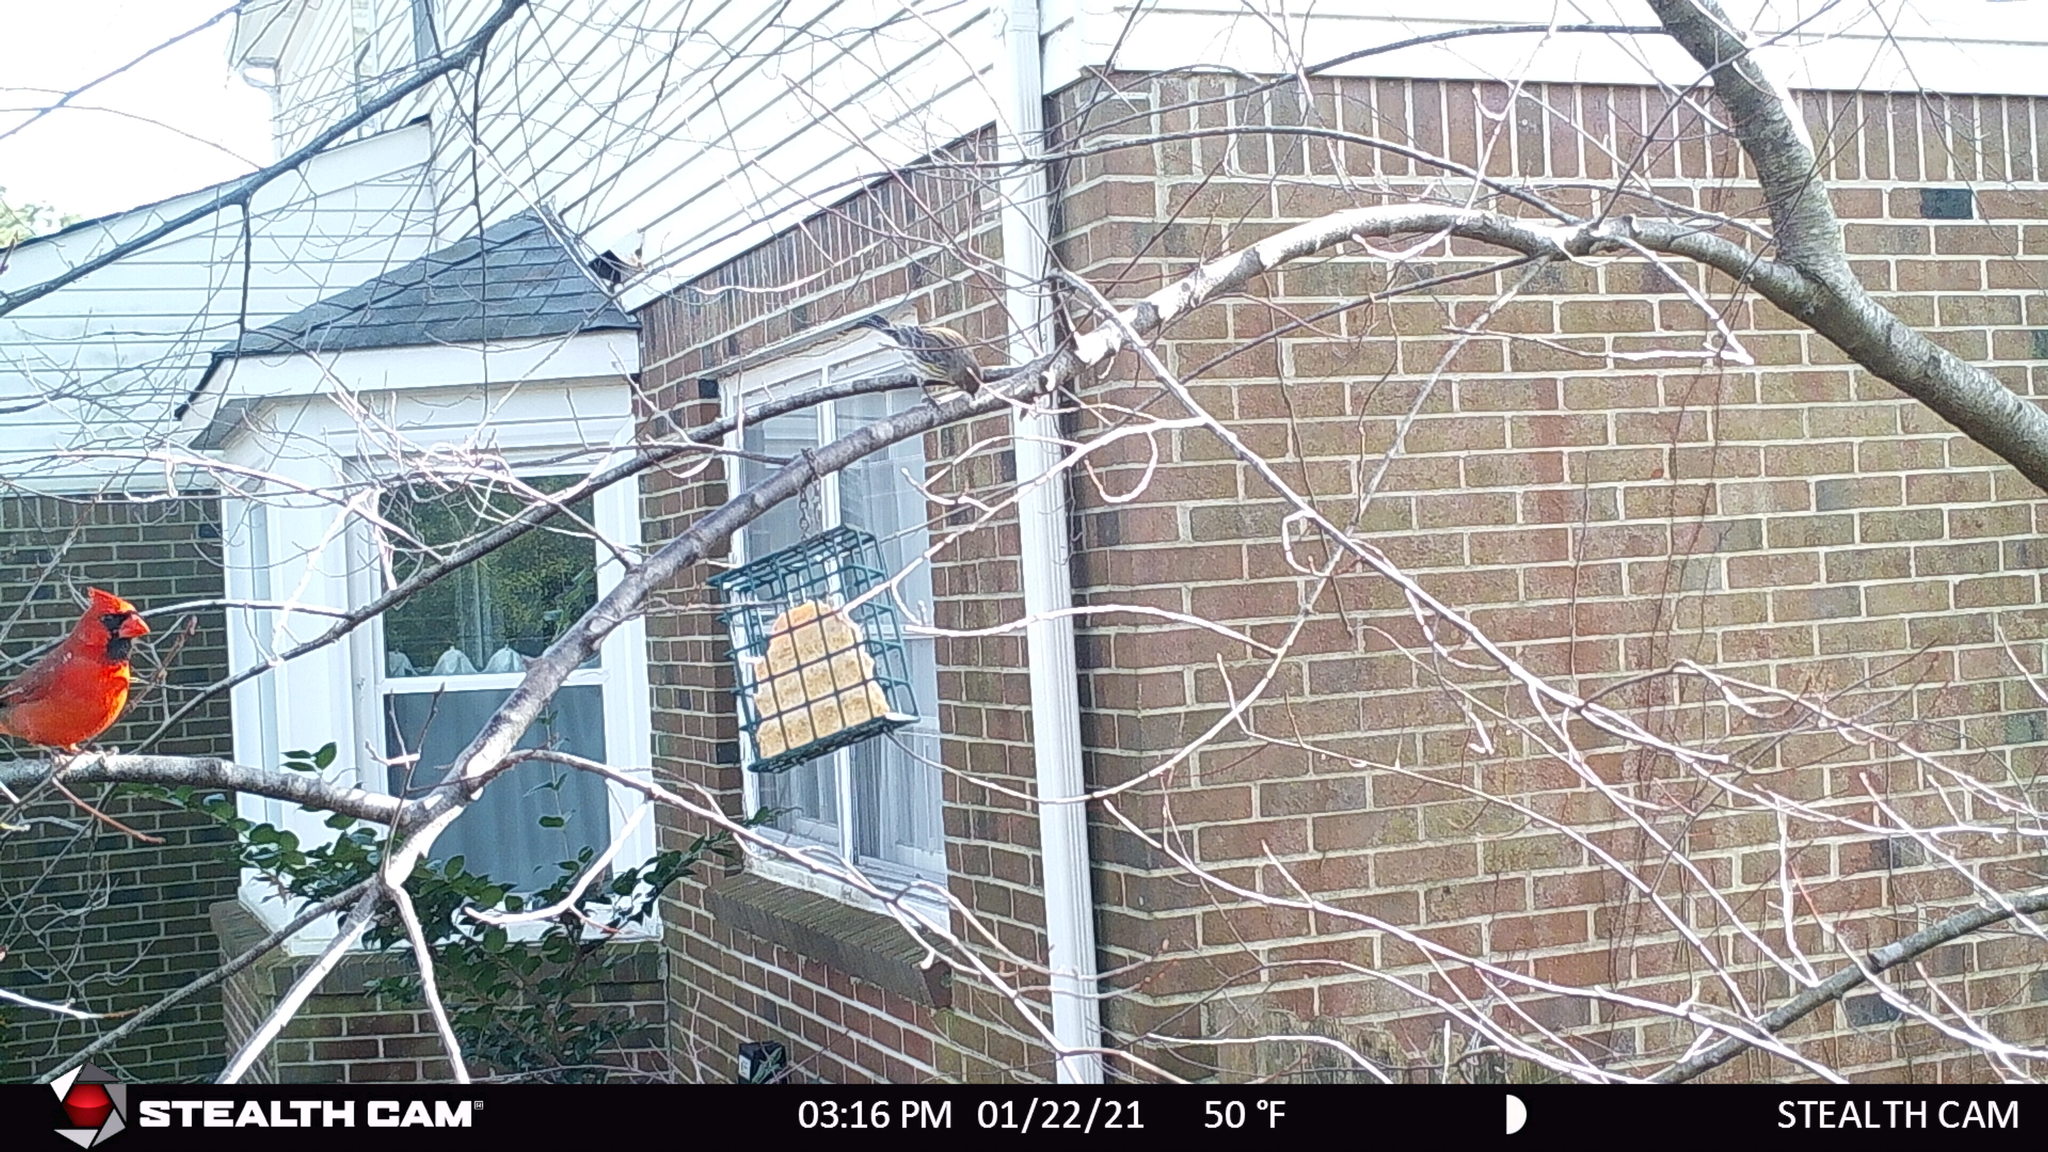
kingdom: Animalia
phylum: Chordata
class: Aves
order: Passeriformes
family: Cardinalidae
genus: Cardinalis
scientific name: Cardinalis cardinalis
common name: Northern cardinal
